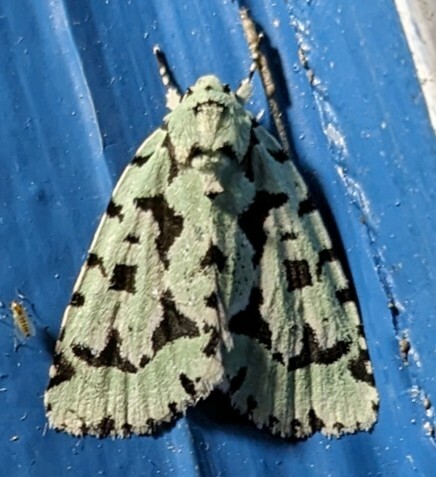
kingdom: Animalia
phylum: Arthropoda
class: Insecta
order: Lepidoptera
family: Noctuidae
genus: Acronicta
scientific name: Acronicta fallax
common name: Green marvel
